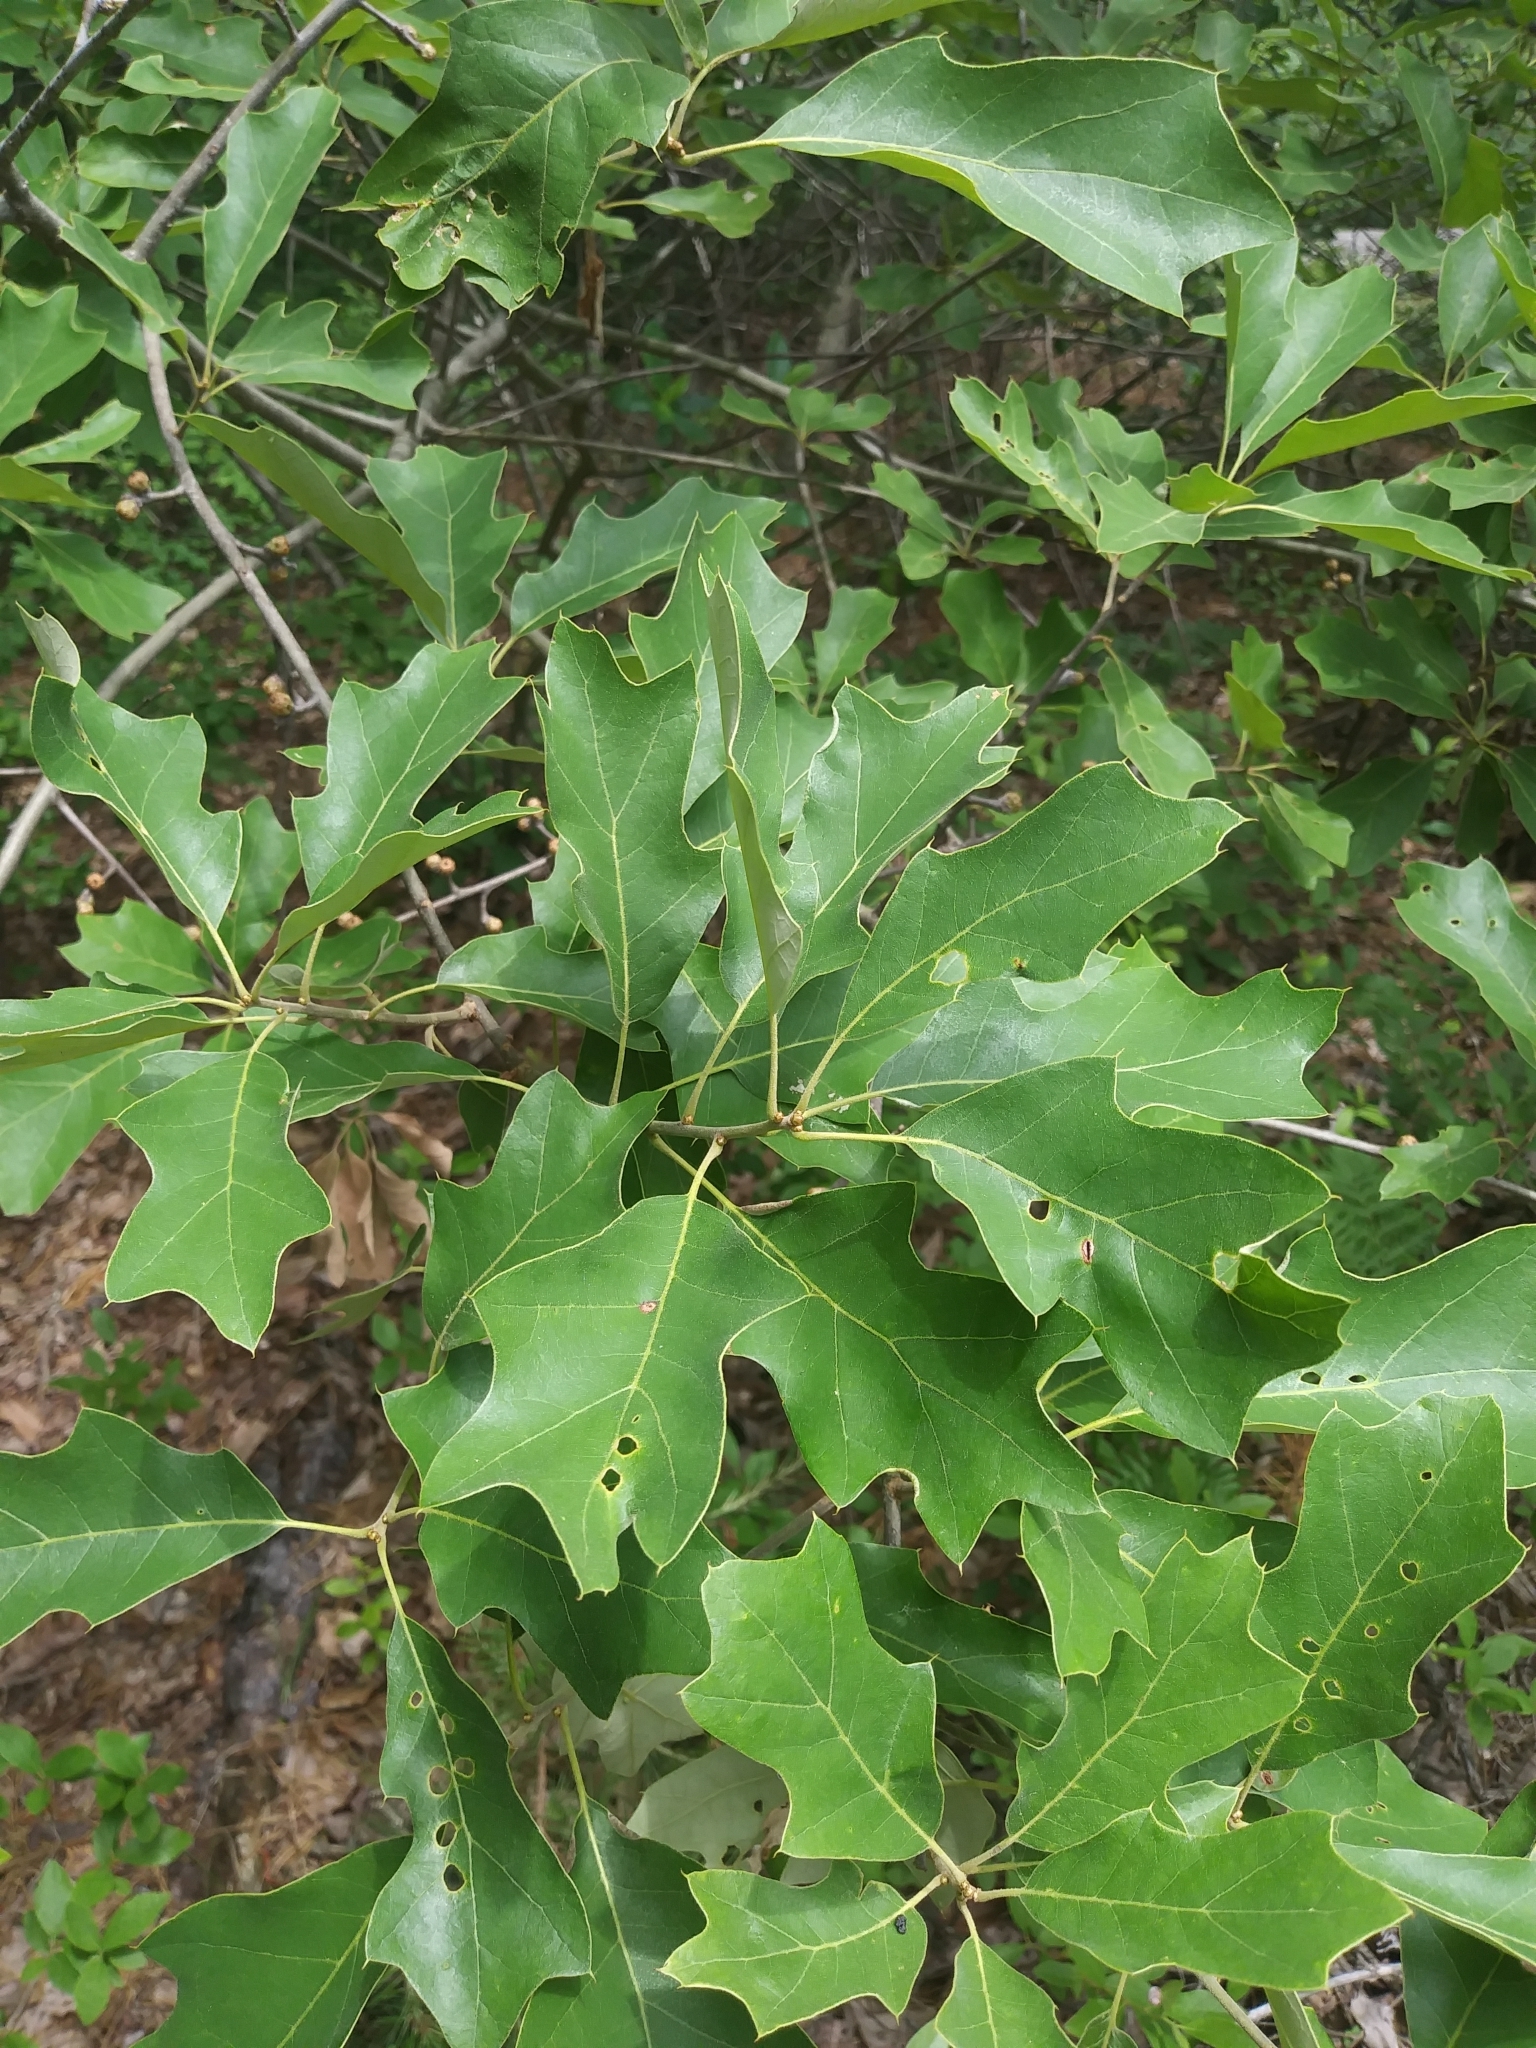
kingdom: Plantae
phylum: Tracheophyta
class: Magnoliopsida
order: Fagales
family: Fagaceae
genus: Quercus
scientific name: Quercus ilicifolia
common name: Bear oak
